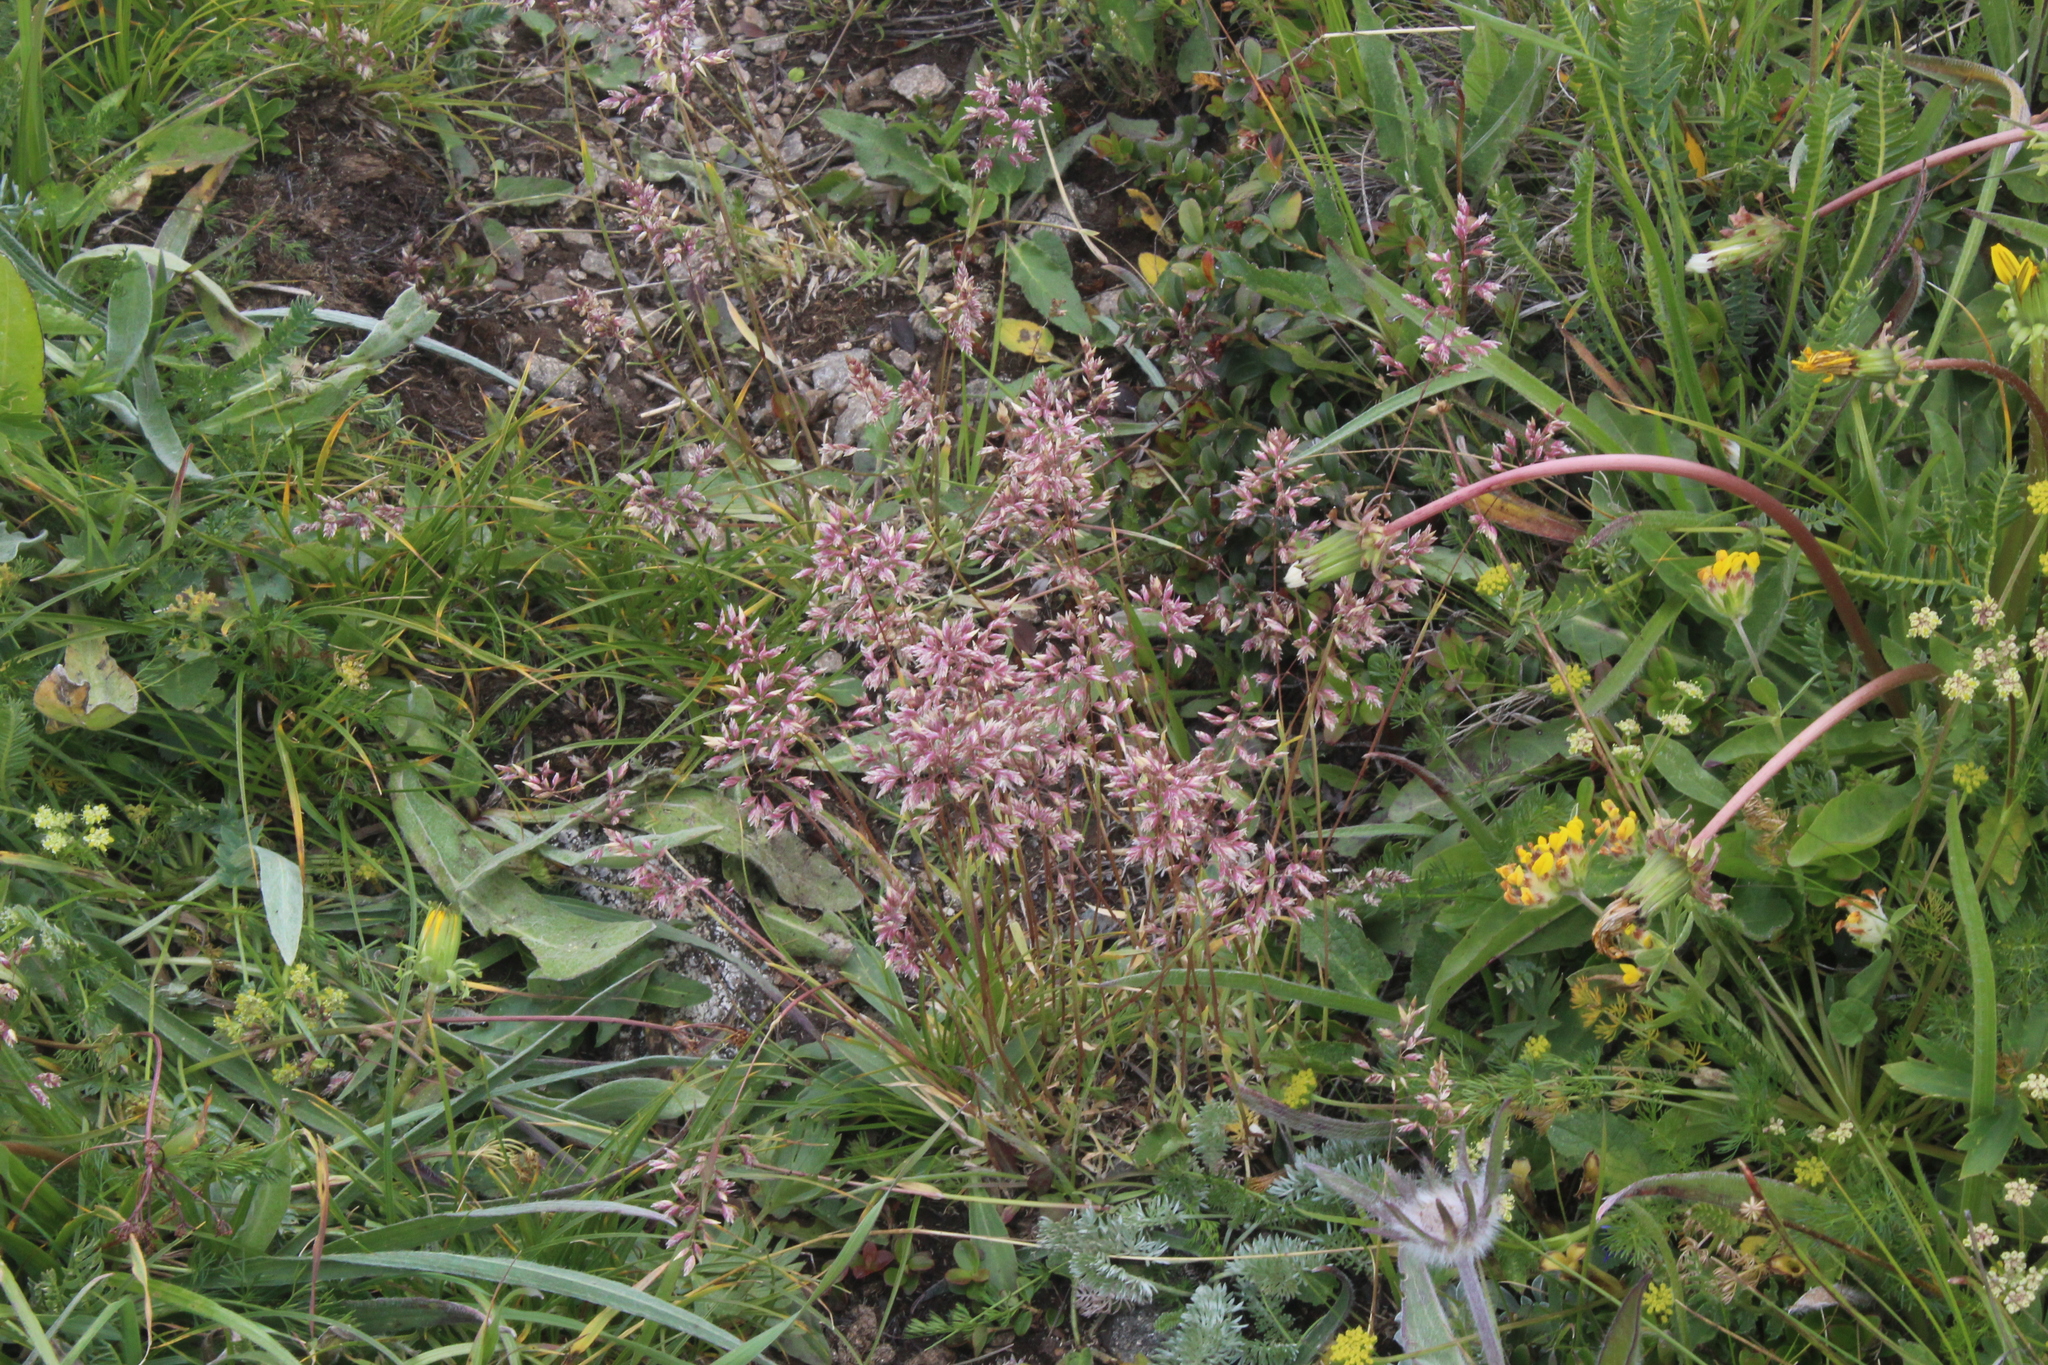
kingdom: Plantae
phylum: Tracheophyta
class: Liliopsida
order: Poales
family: Poaceae
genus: Poa
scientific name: Poa alpina
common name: Alpine bluegrass
